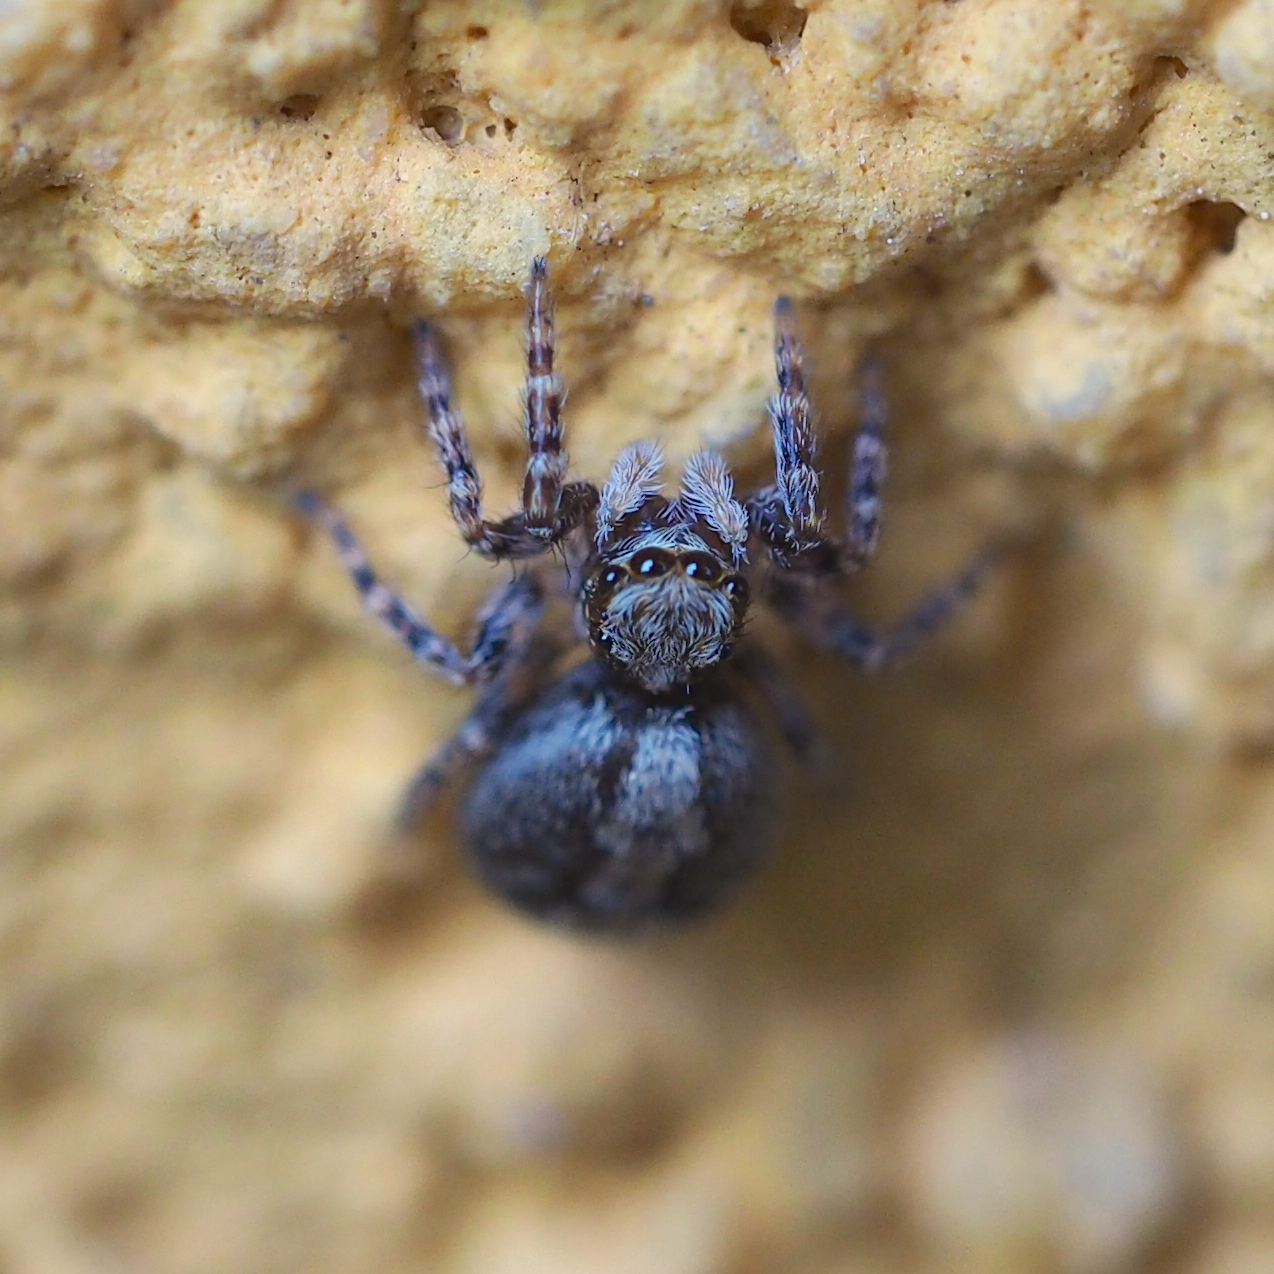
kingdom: Animalia
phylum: Arthropoda
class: Arachnida
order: Araneae
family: Salticidae
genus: Pseudeuophrys
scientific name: Pseudeuophrys lanigera
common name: Jumping spider
